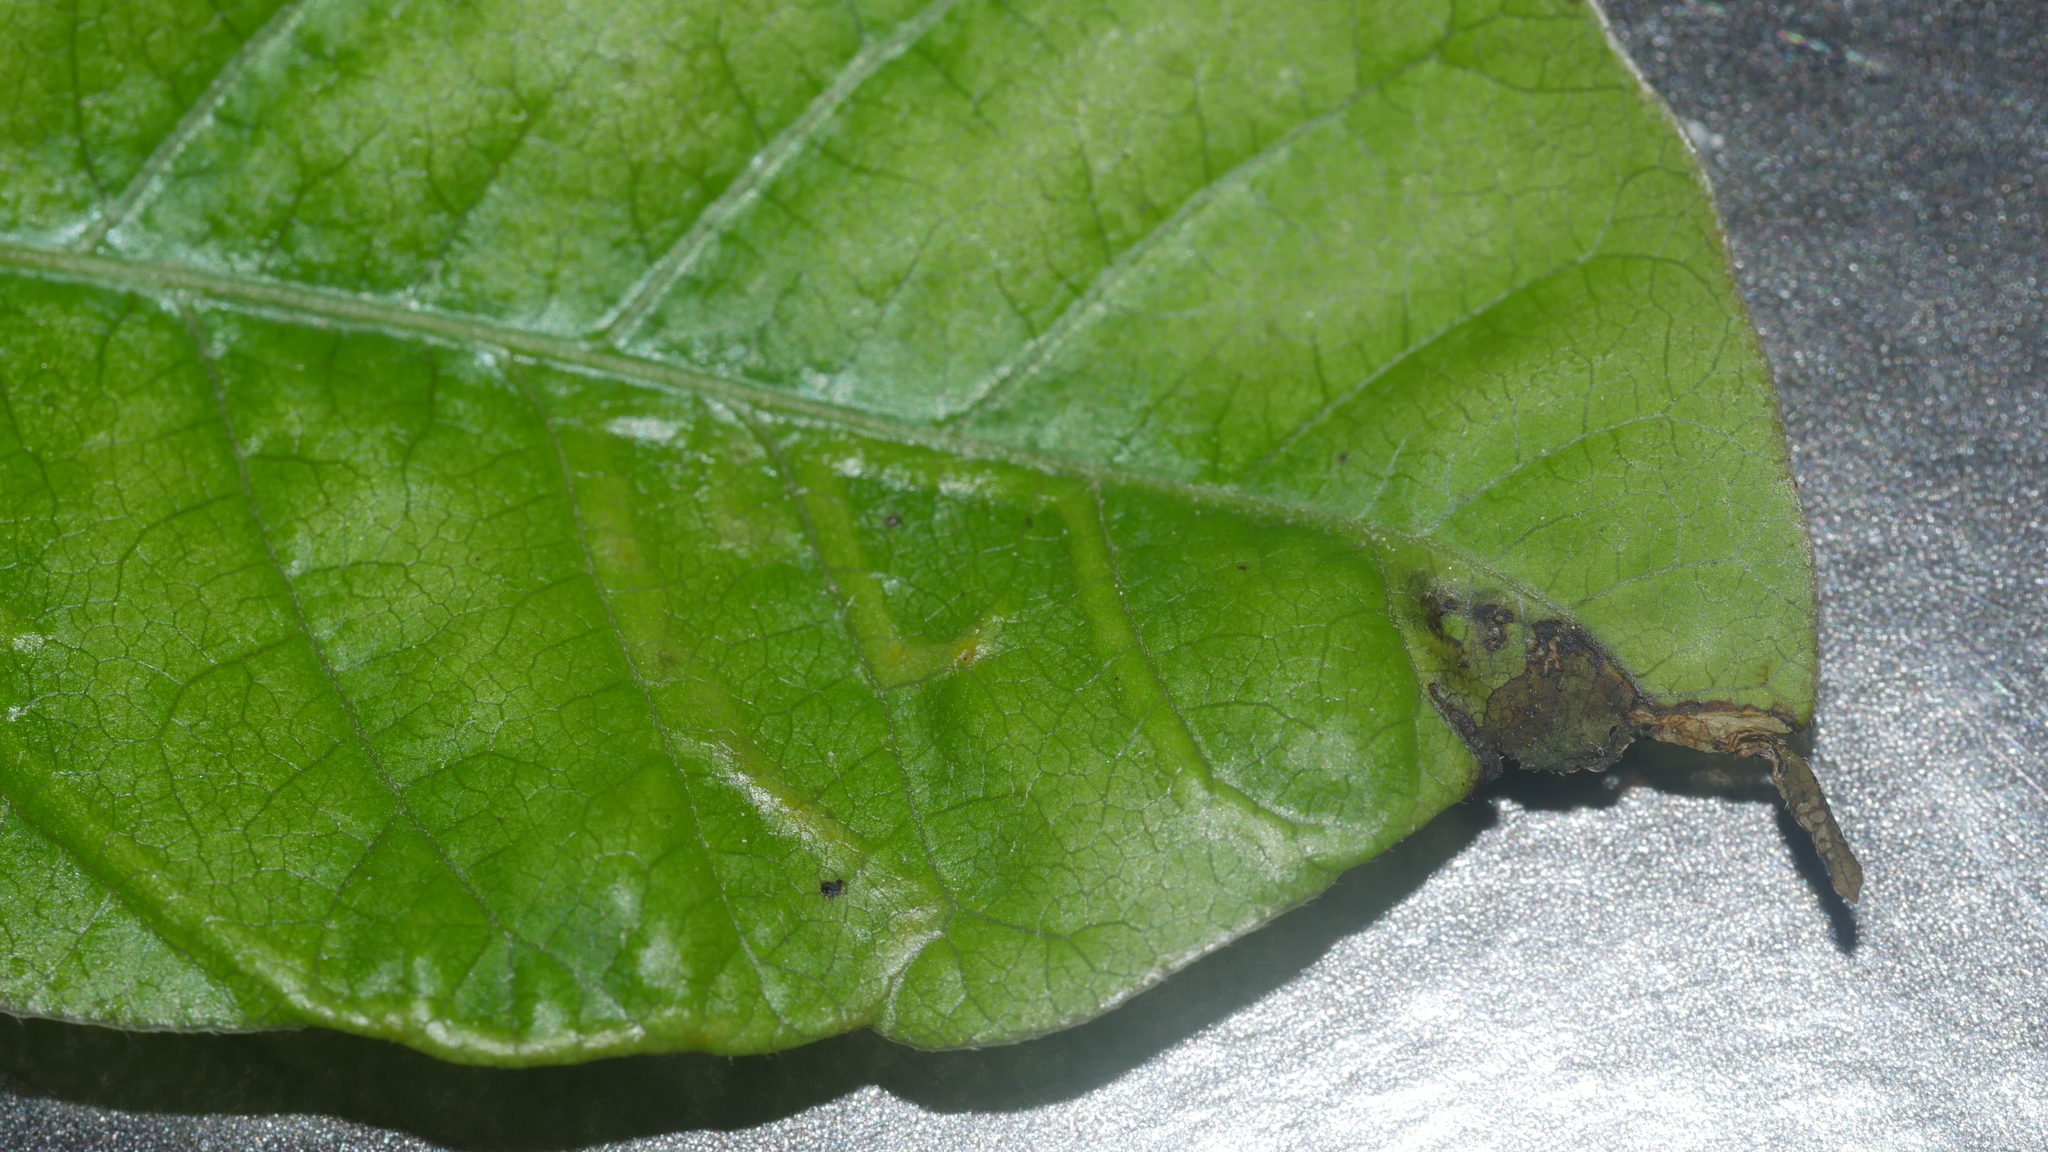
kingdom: Animalia
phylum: Arthropoda
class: Insecta
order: Lepidoptera
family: Gracillariidae
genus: Caloptilia
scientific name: Caloptilia rhoifoliella
